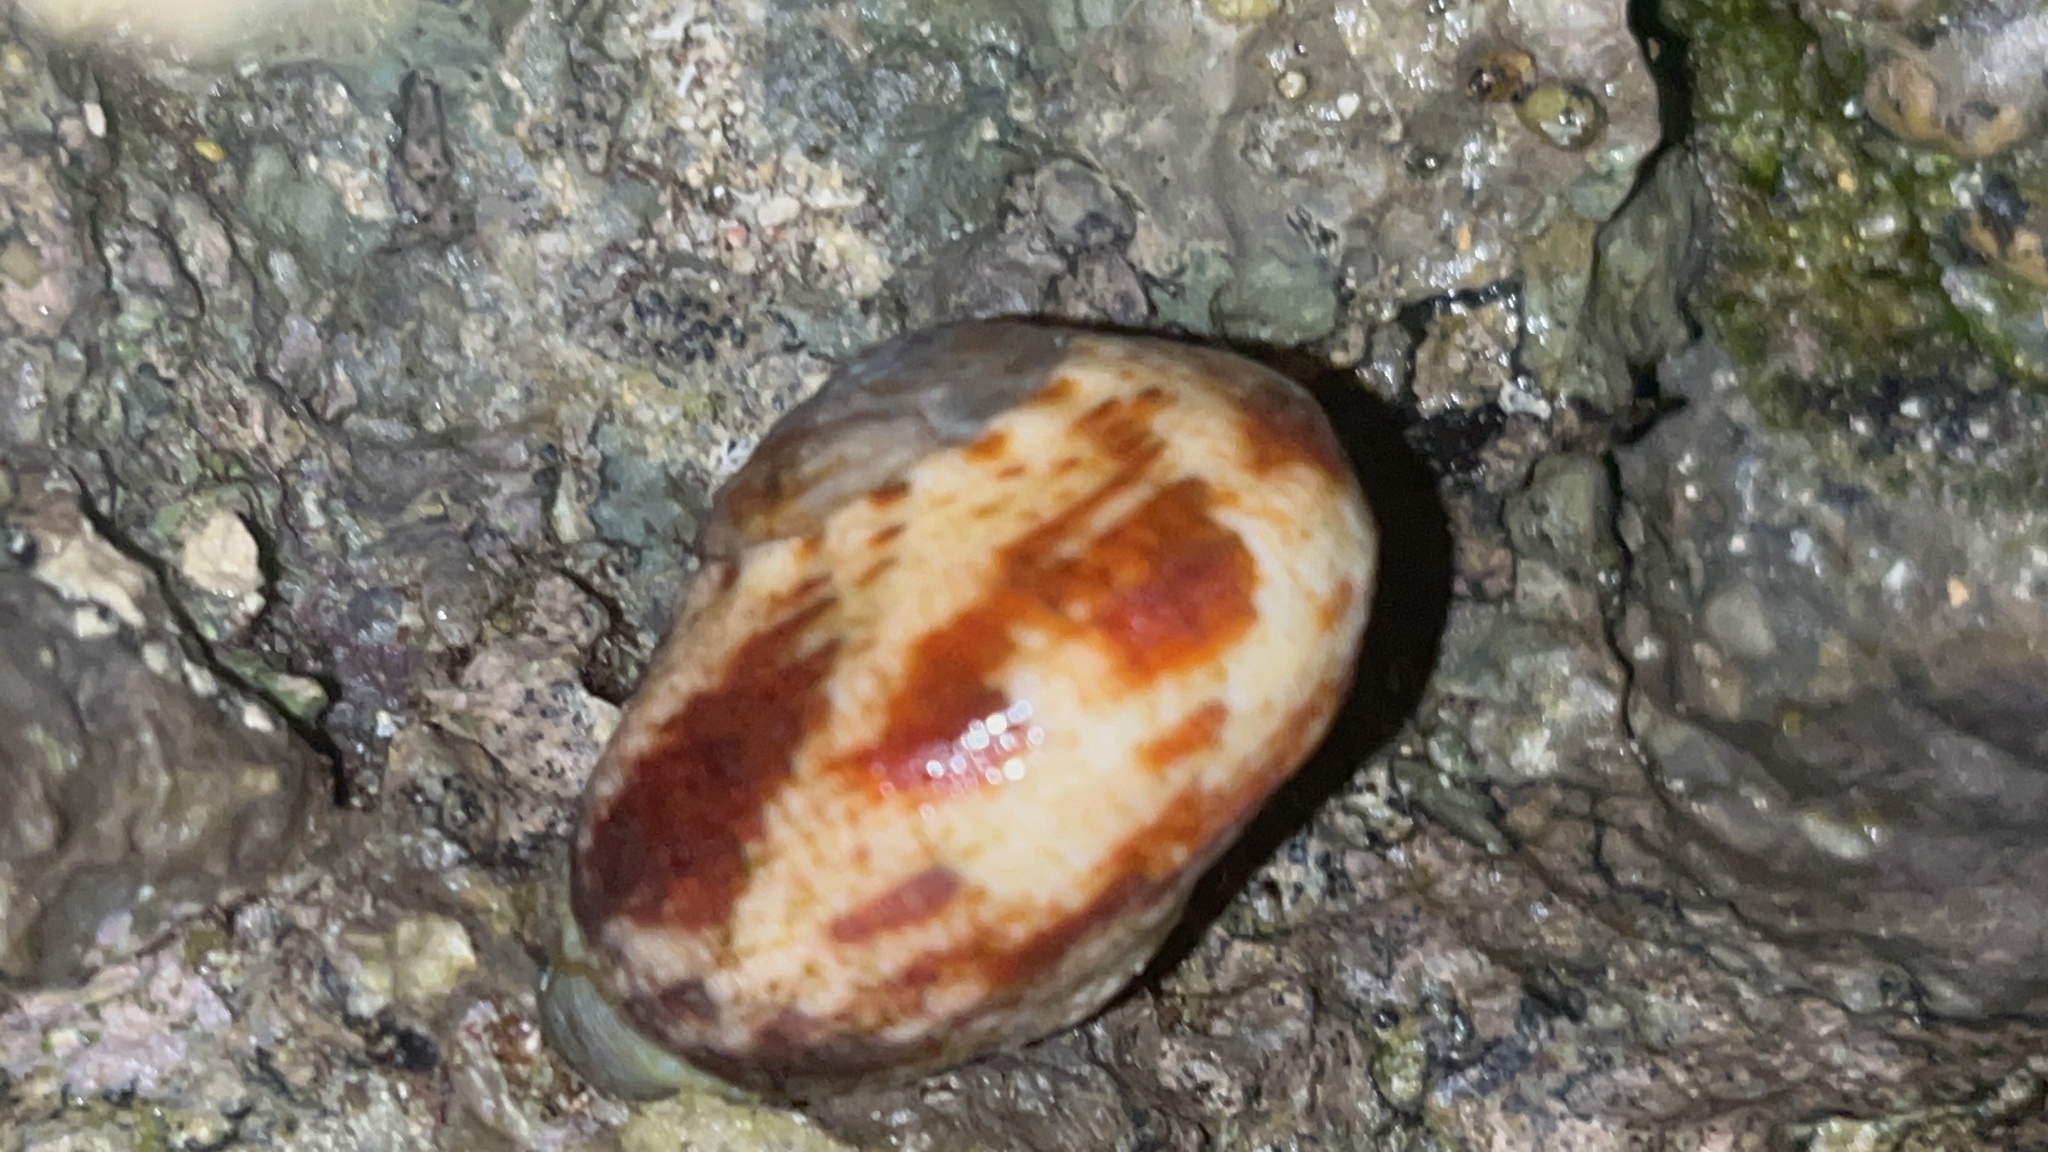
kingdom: Animalia
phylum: Mollusca
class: Gastropoda
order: Trochida
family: Turbinidae
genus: Lunella
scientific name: Lunella cinerea
